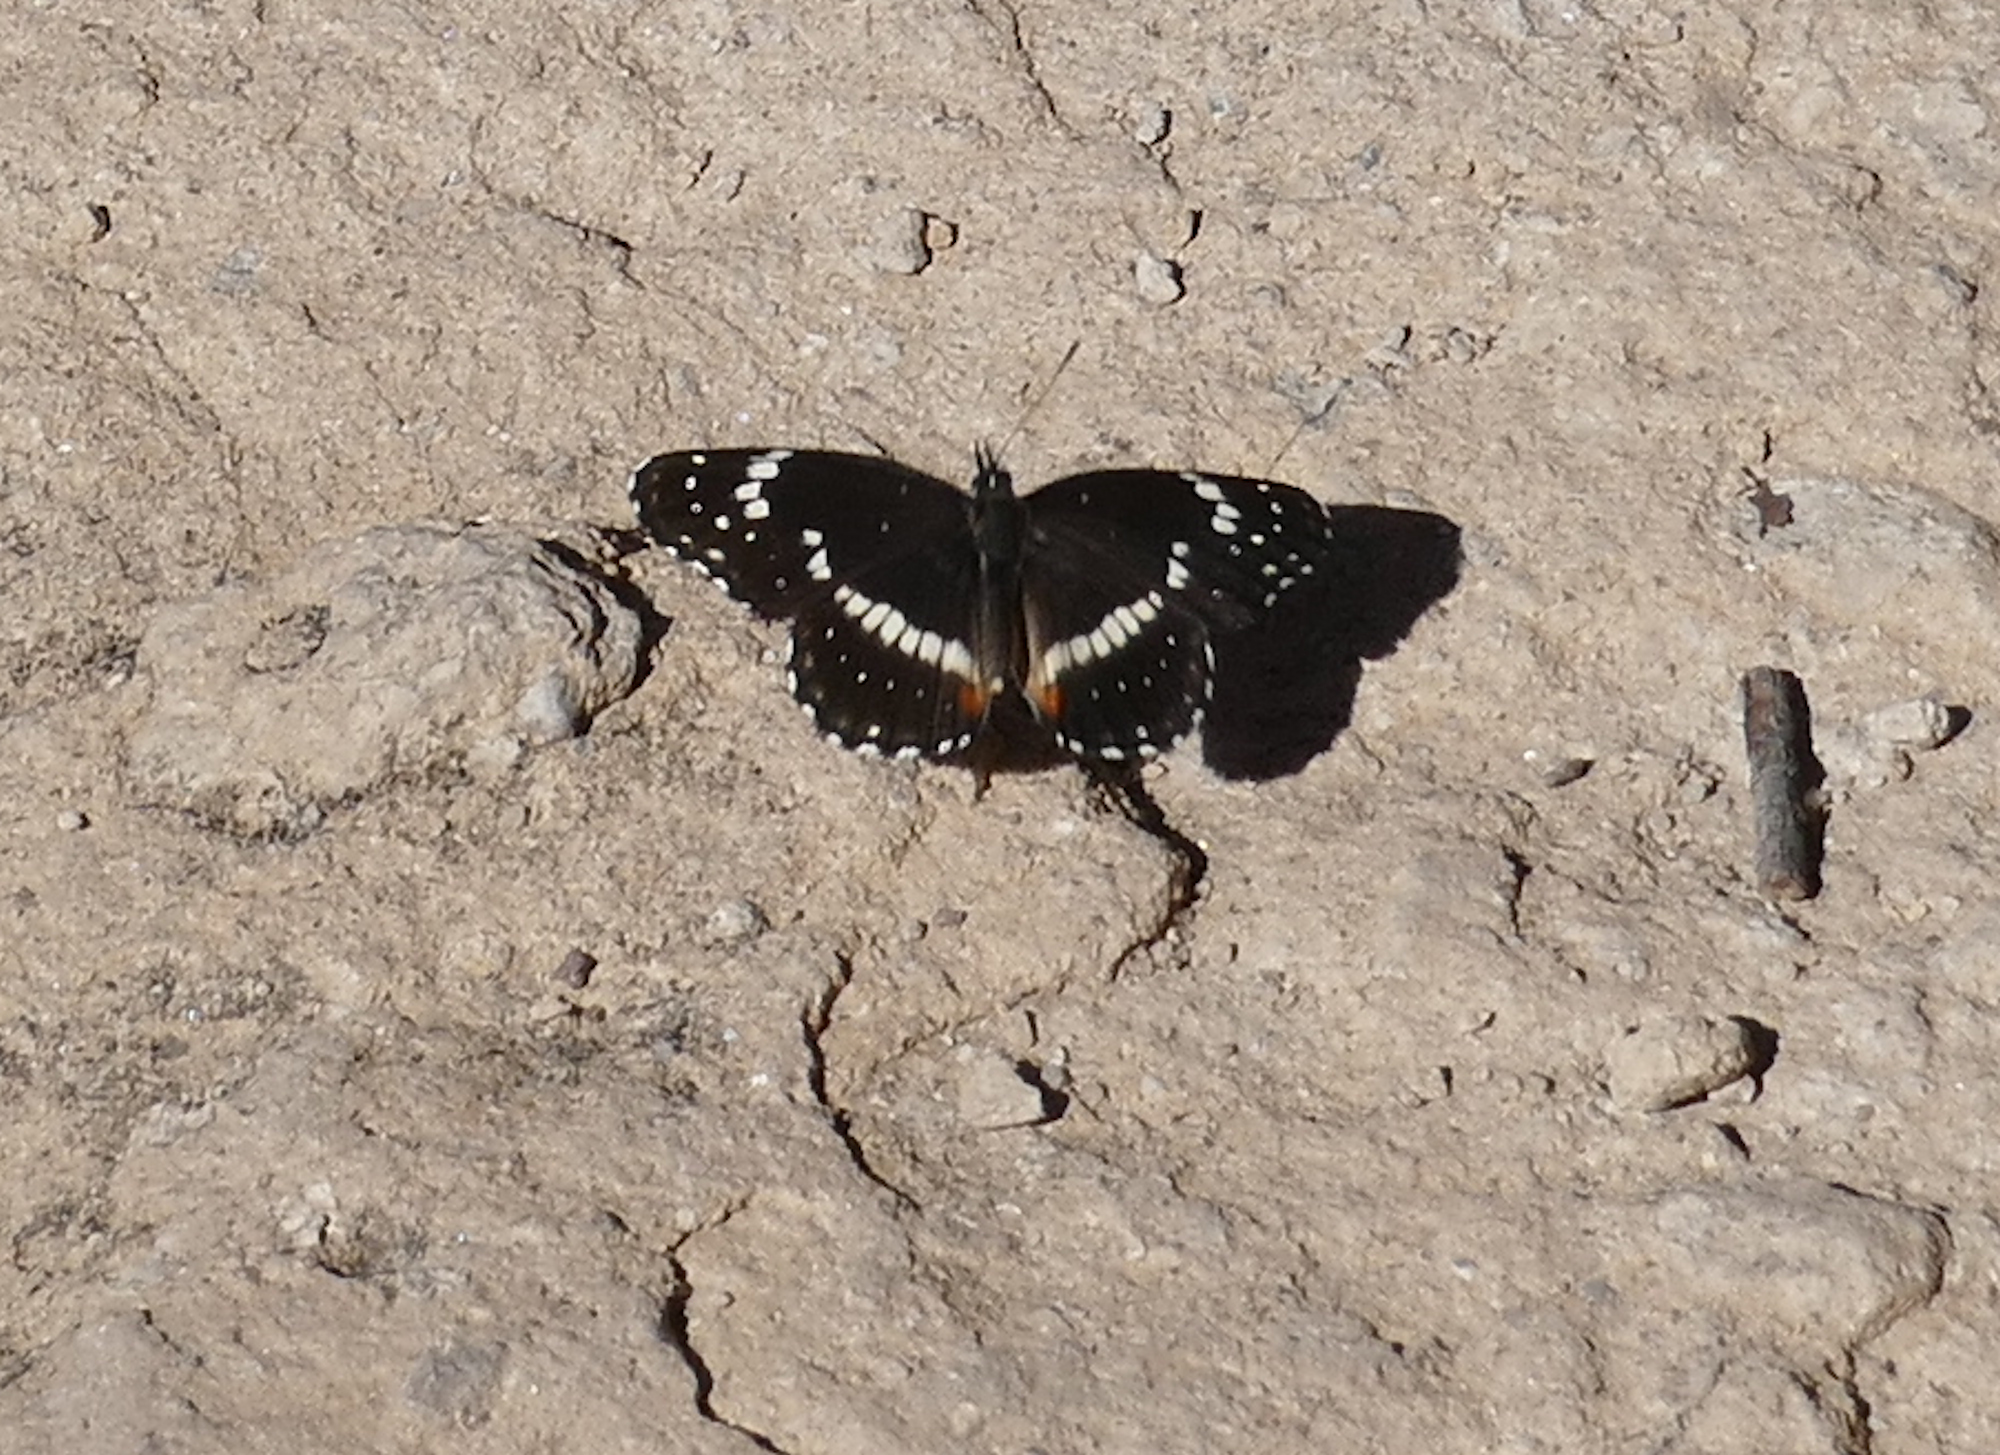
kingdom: Animalia
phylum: Arthropoda
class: Insecta
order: Lepidoptera
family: Nymphalidae
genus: Chlosyne
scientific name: Chlosyne lacinia
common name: Bordered patch
